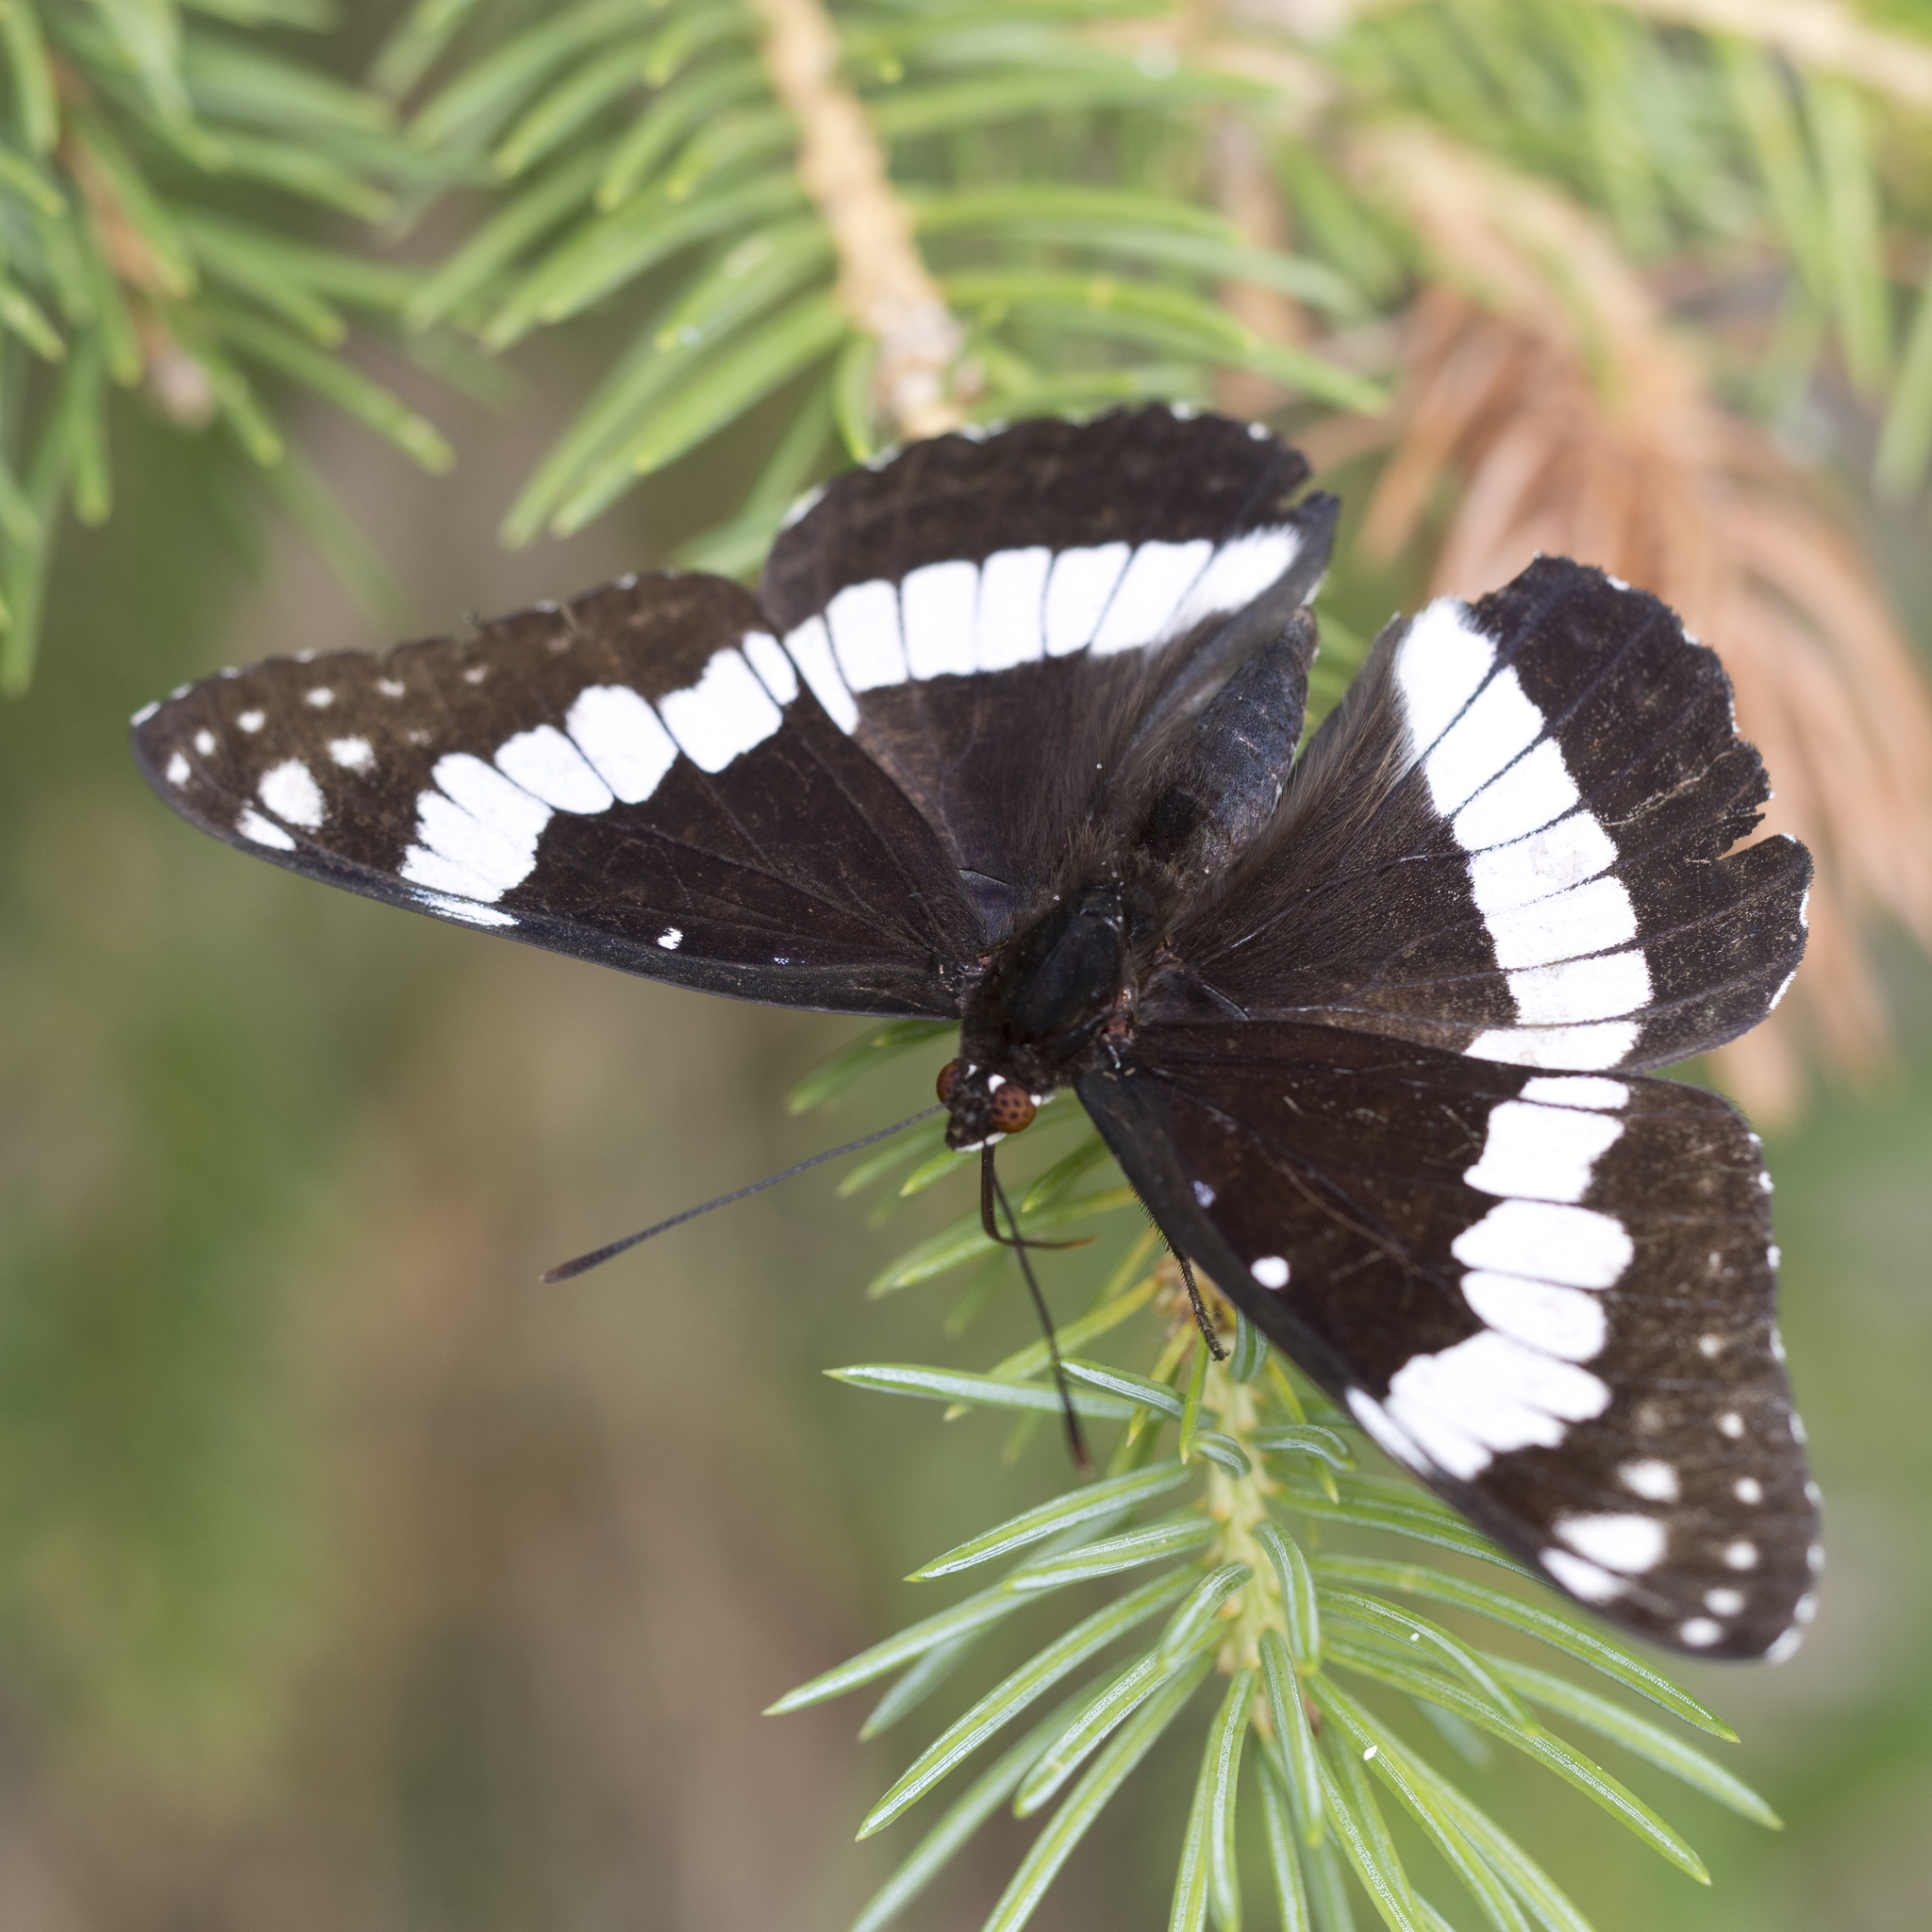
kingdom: Animalia
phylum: Arthropoda
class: Insecta
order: Lepidoptera
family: Nymphalidae
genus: Limenitis
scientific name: Limenitis weidemeyerii
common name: Weidemeyer's admiral
